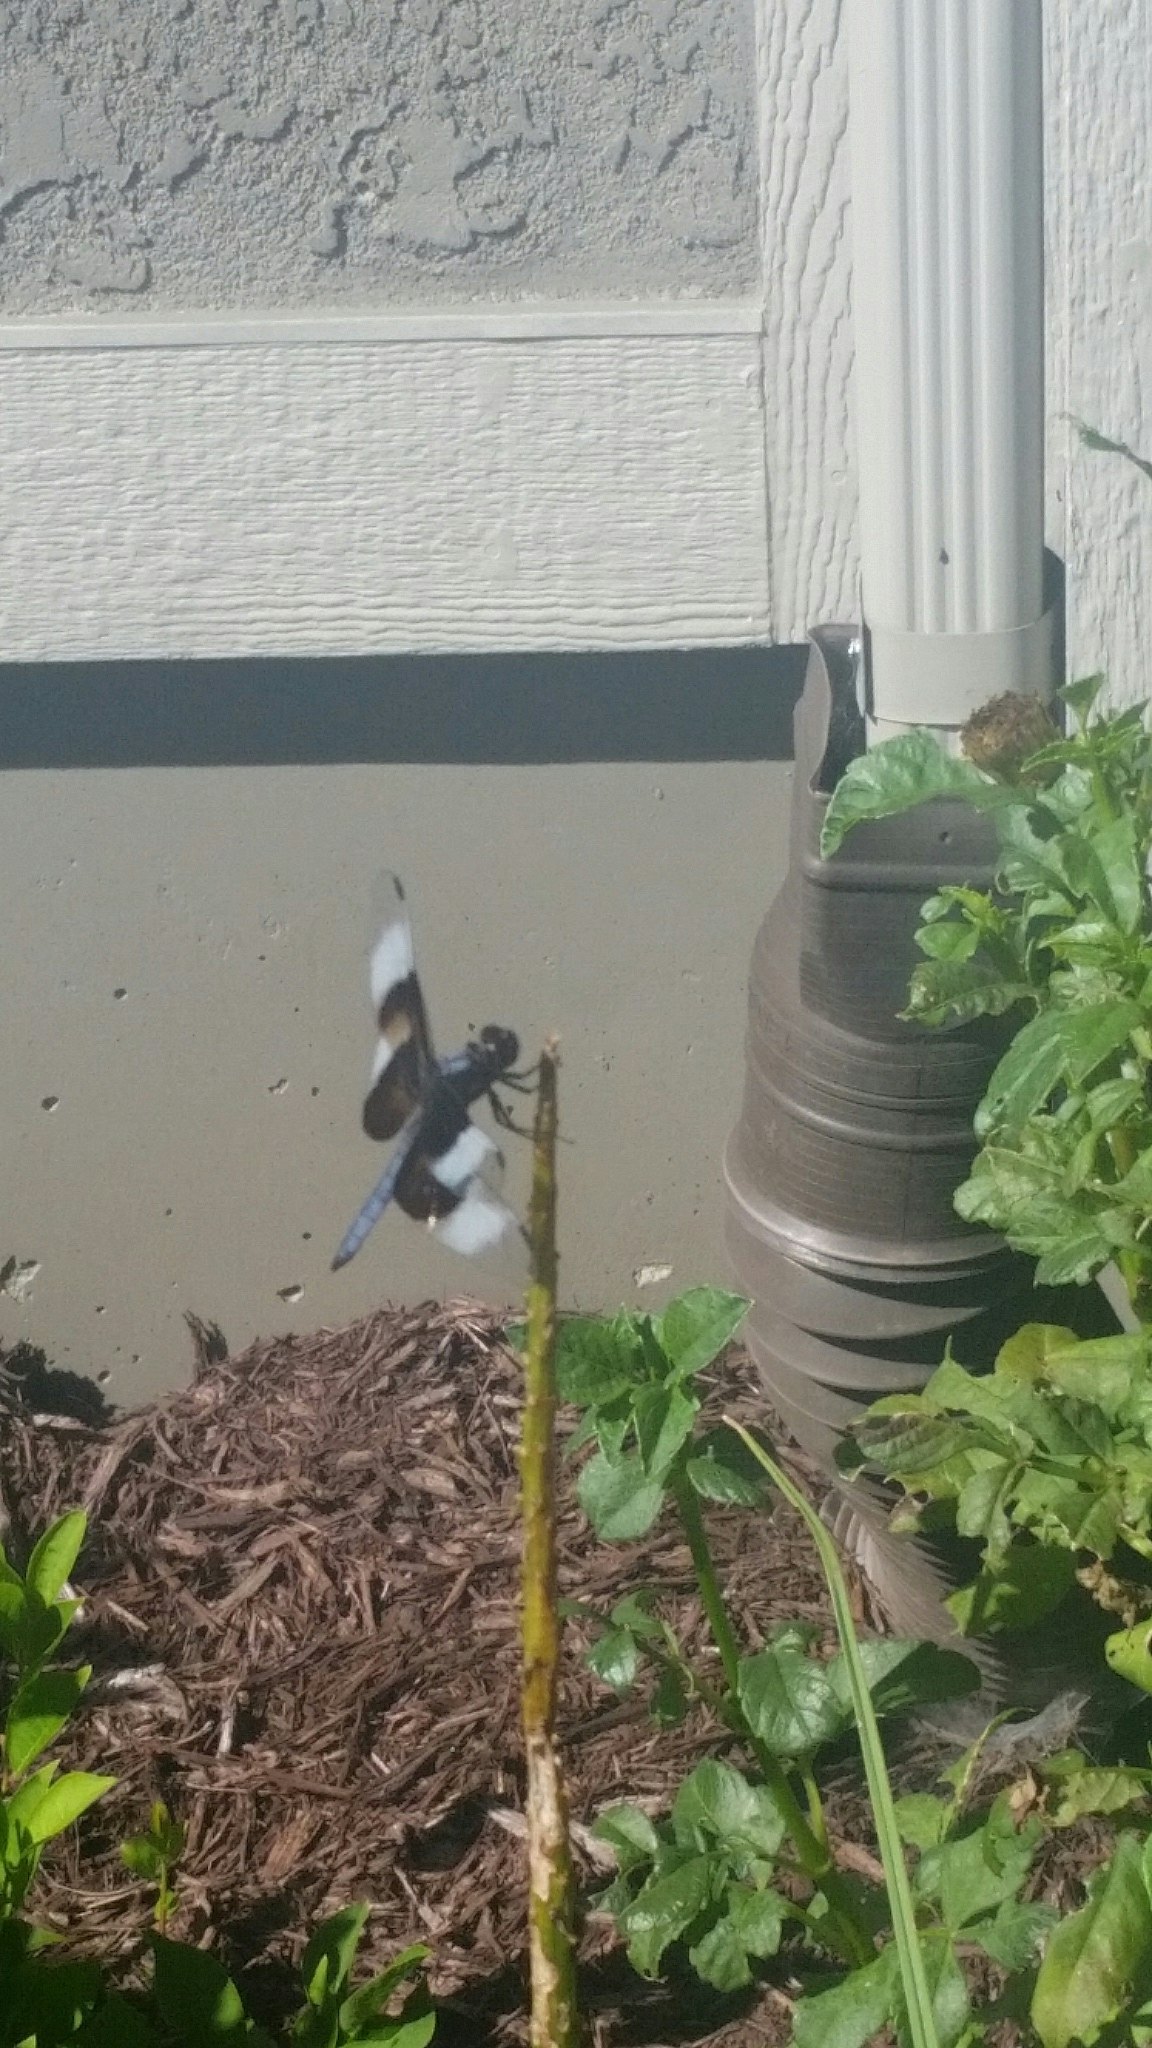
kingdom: Animalia
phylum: Arthropoda
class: Insecta
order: Odonata
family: Libellulidae
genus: Libellula
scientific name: Libellula luctuosa
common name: Widow skimmer
